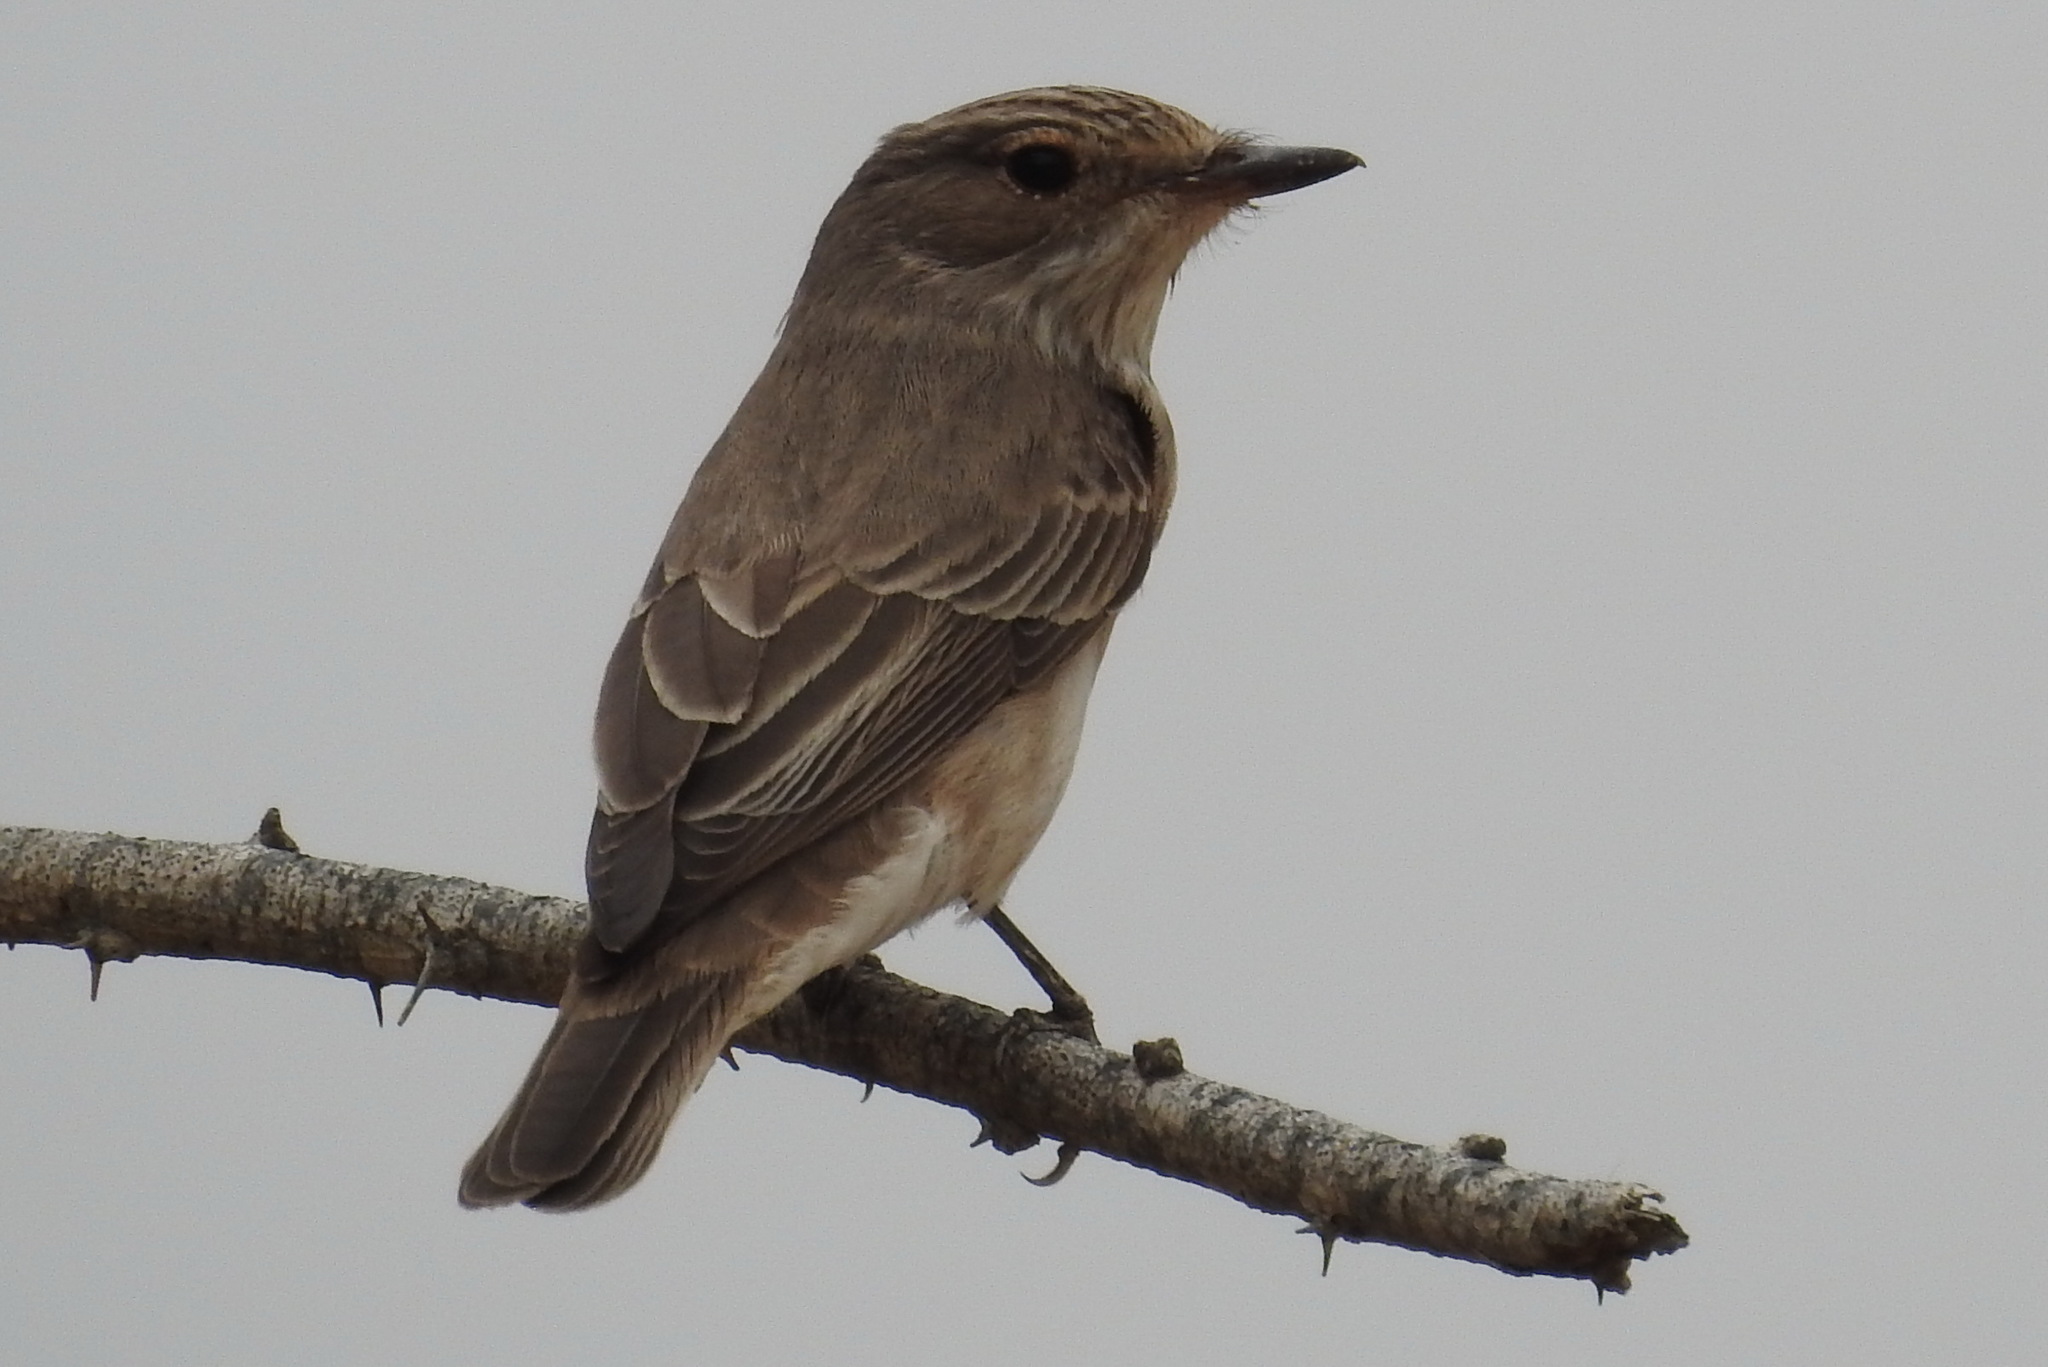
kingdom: Animalia
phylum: Chordata
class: Aves
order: Passeriformes
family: Muscicapidae
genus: Muscicapa
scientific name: Muscicapa striata
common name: Spotted flycatcher
